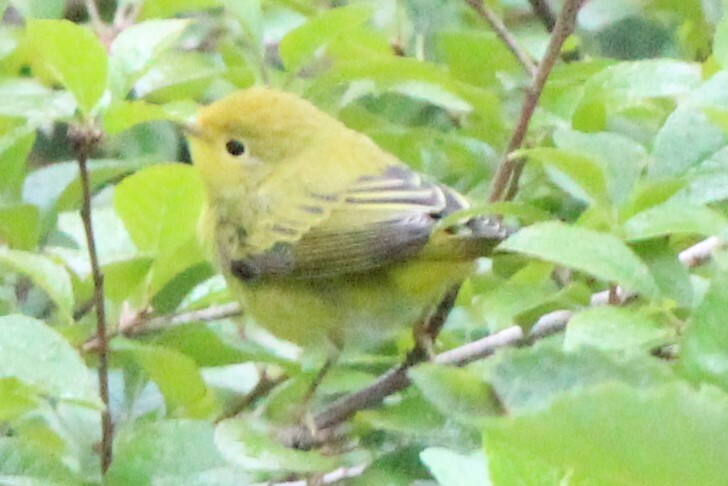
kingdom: Animalia
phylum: Chordata
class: Aves
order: Passeriformes
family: Parulidae
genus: Setophaga
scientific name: Setophaga petechia
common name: Yellow warbler
